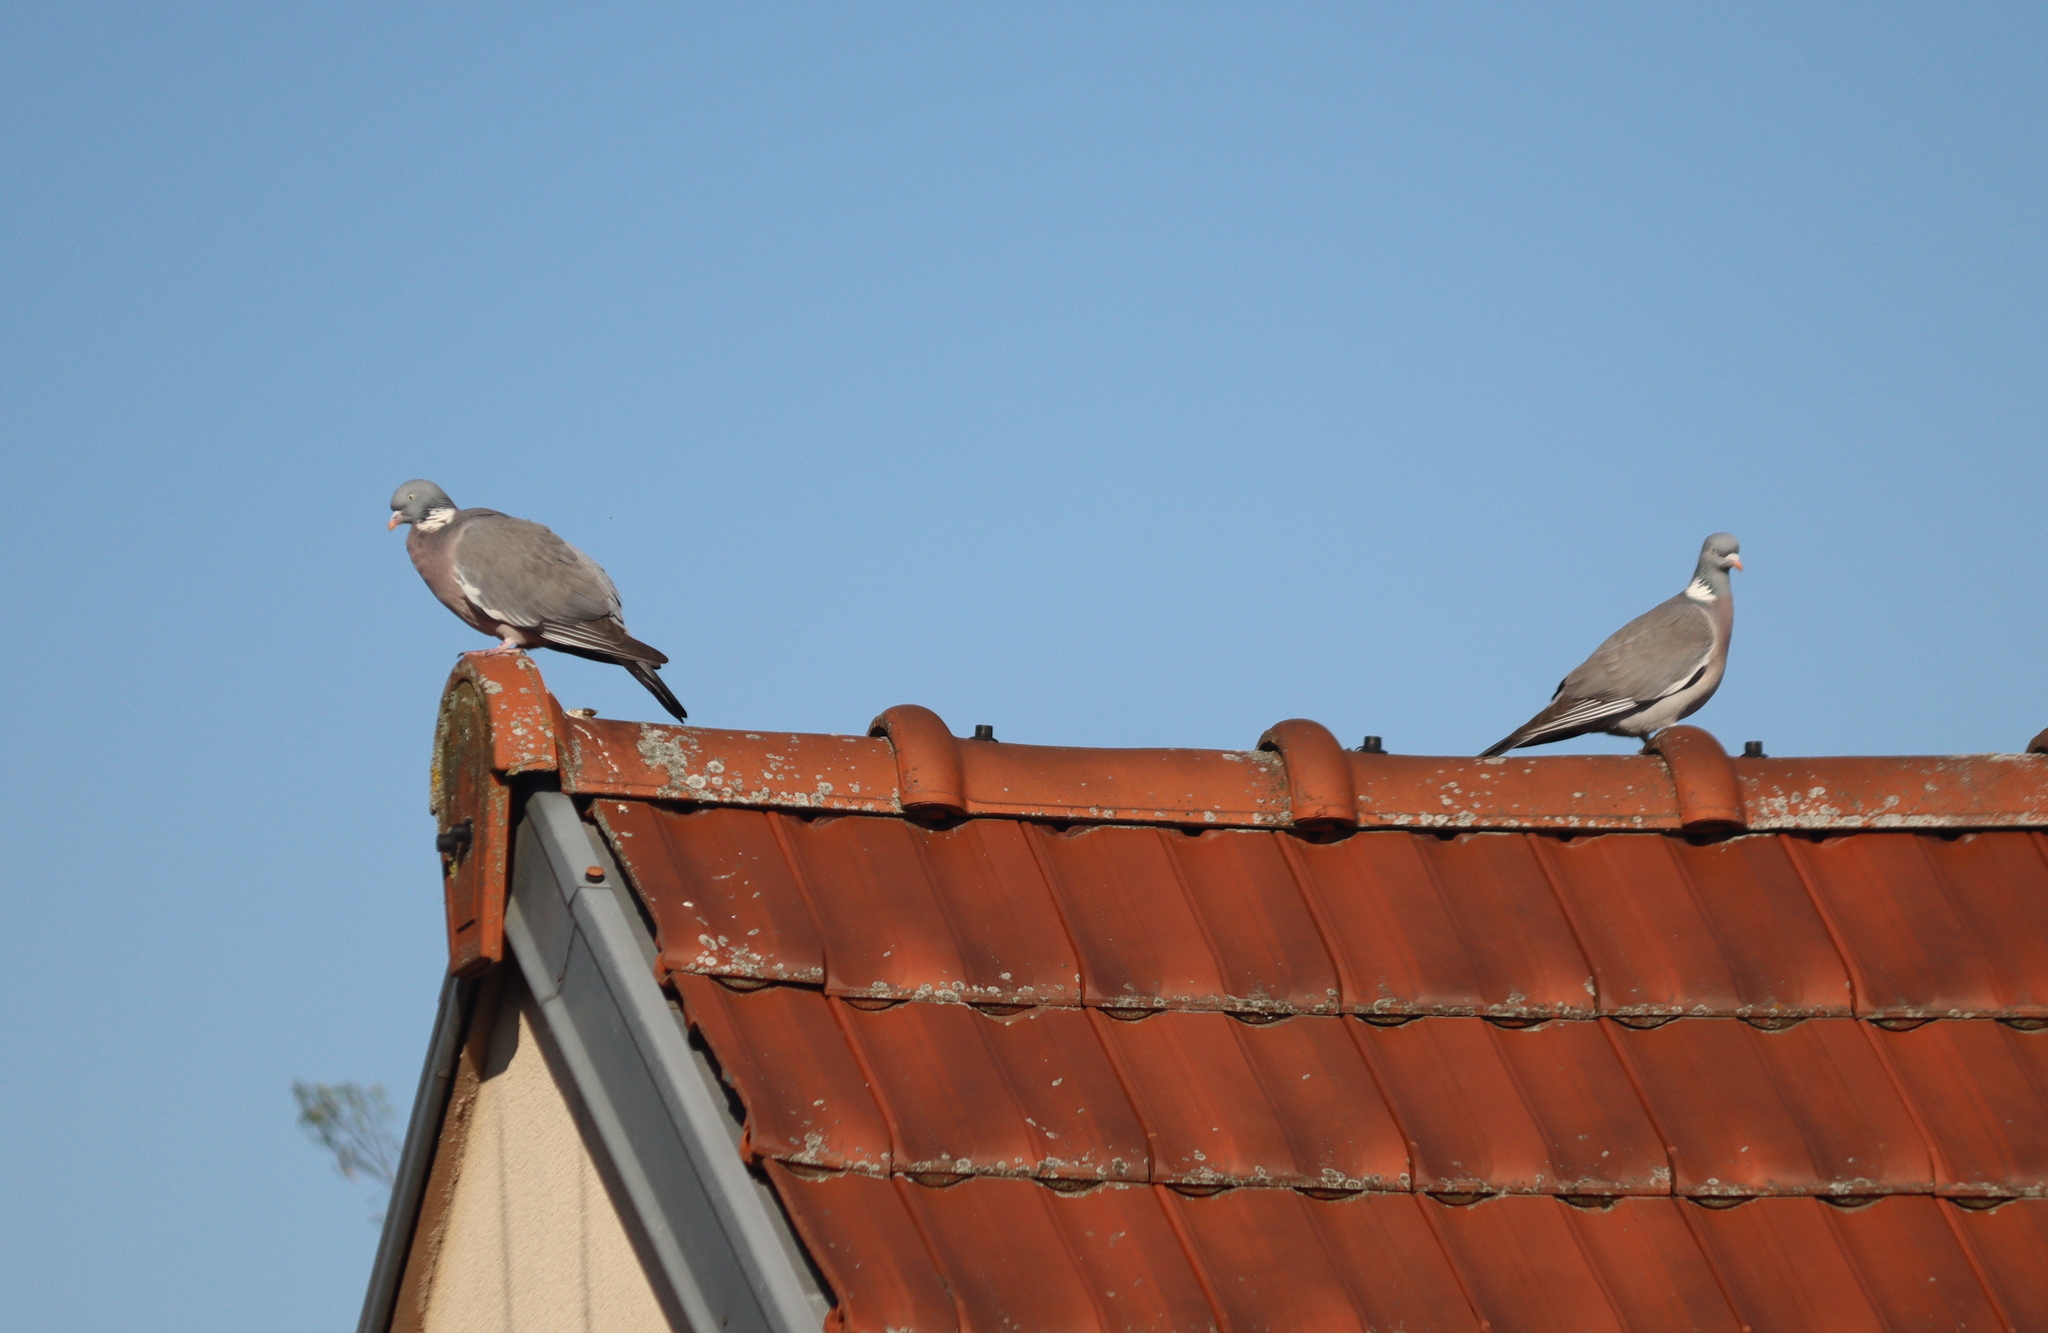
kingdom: Animalia
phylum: Chordata
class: Aves
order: Columbiformes
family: Columbidae
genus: Columba
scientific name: Columba palumbus
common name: Common wood pigeon
